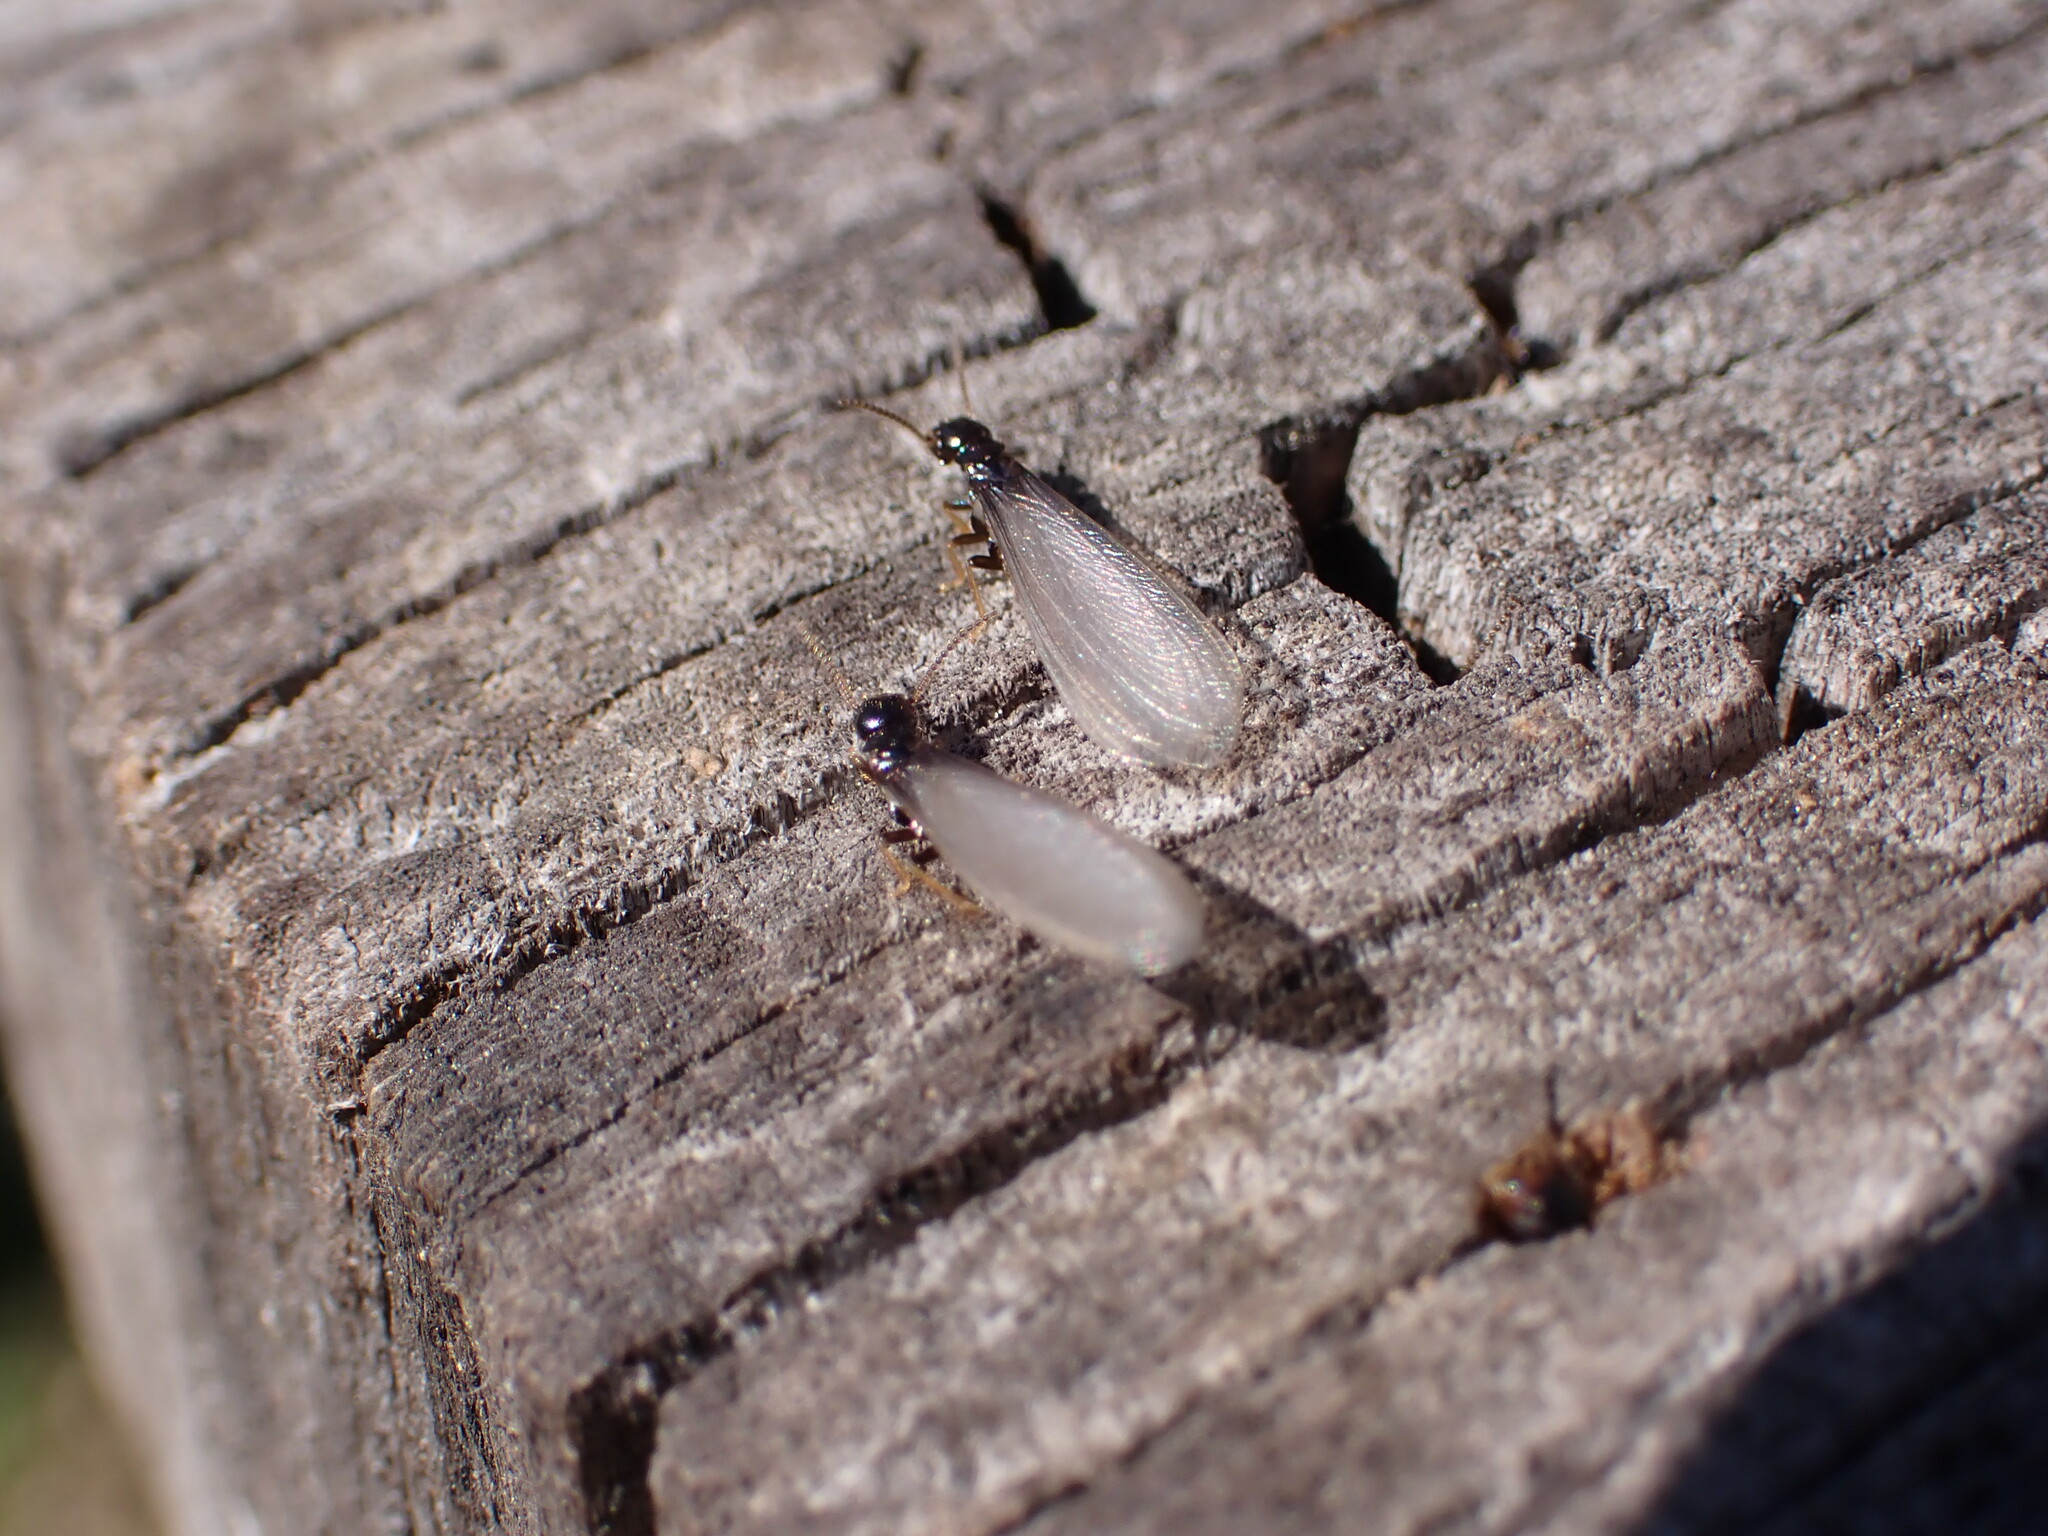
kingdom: Animalia
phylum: Arthropoda
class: Insecta
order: Blattodea
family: Rhinotermitidae
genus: Reticulitermes
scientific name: Reticulitermes flavipes
